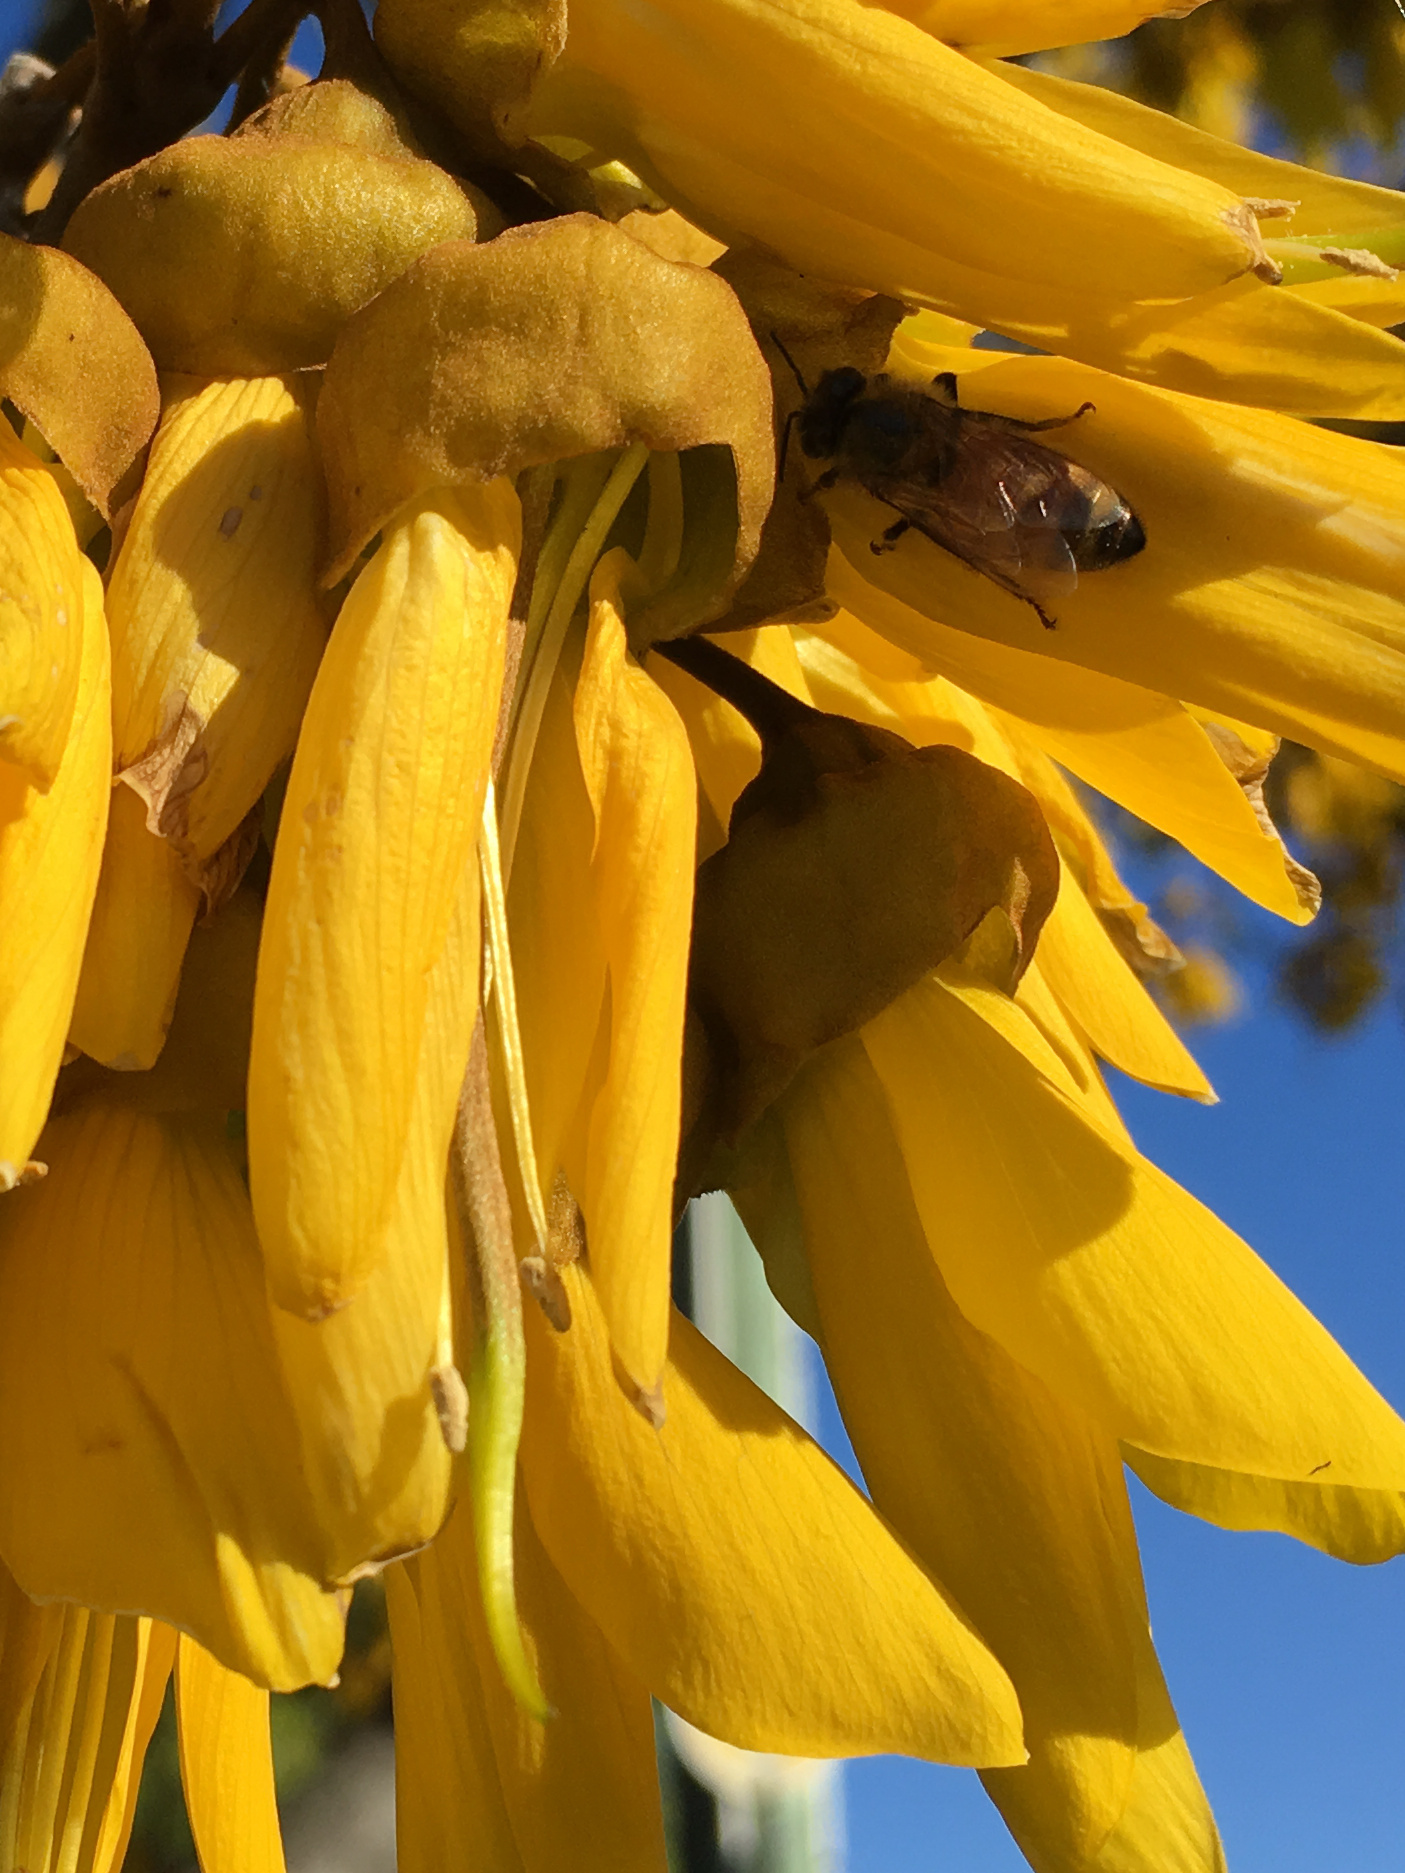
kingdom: Animalia
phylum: Arthropoda
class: Insecta
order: Hymenoptera
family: Apidae
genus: Apis
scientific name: Apis mellifera
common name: Honey bee
